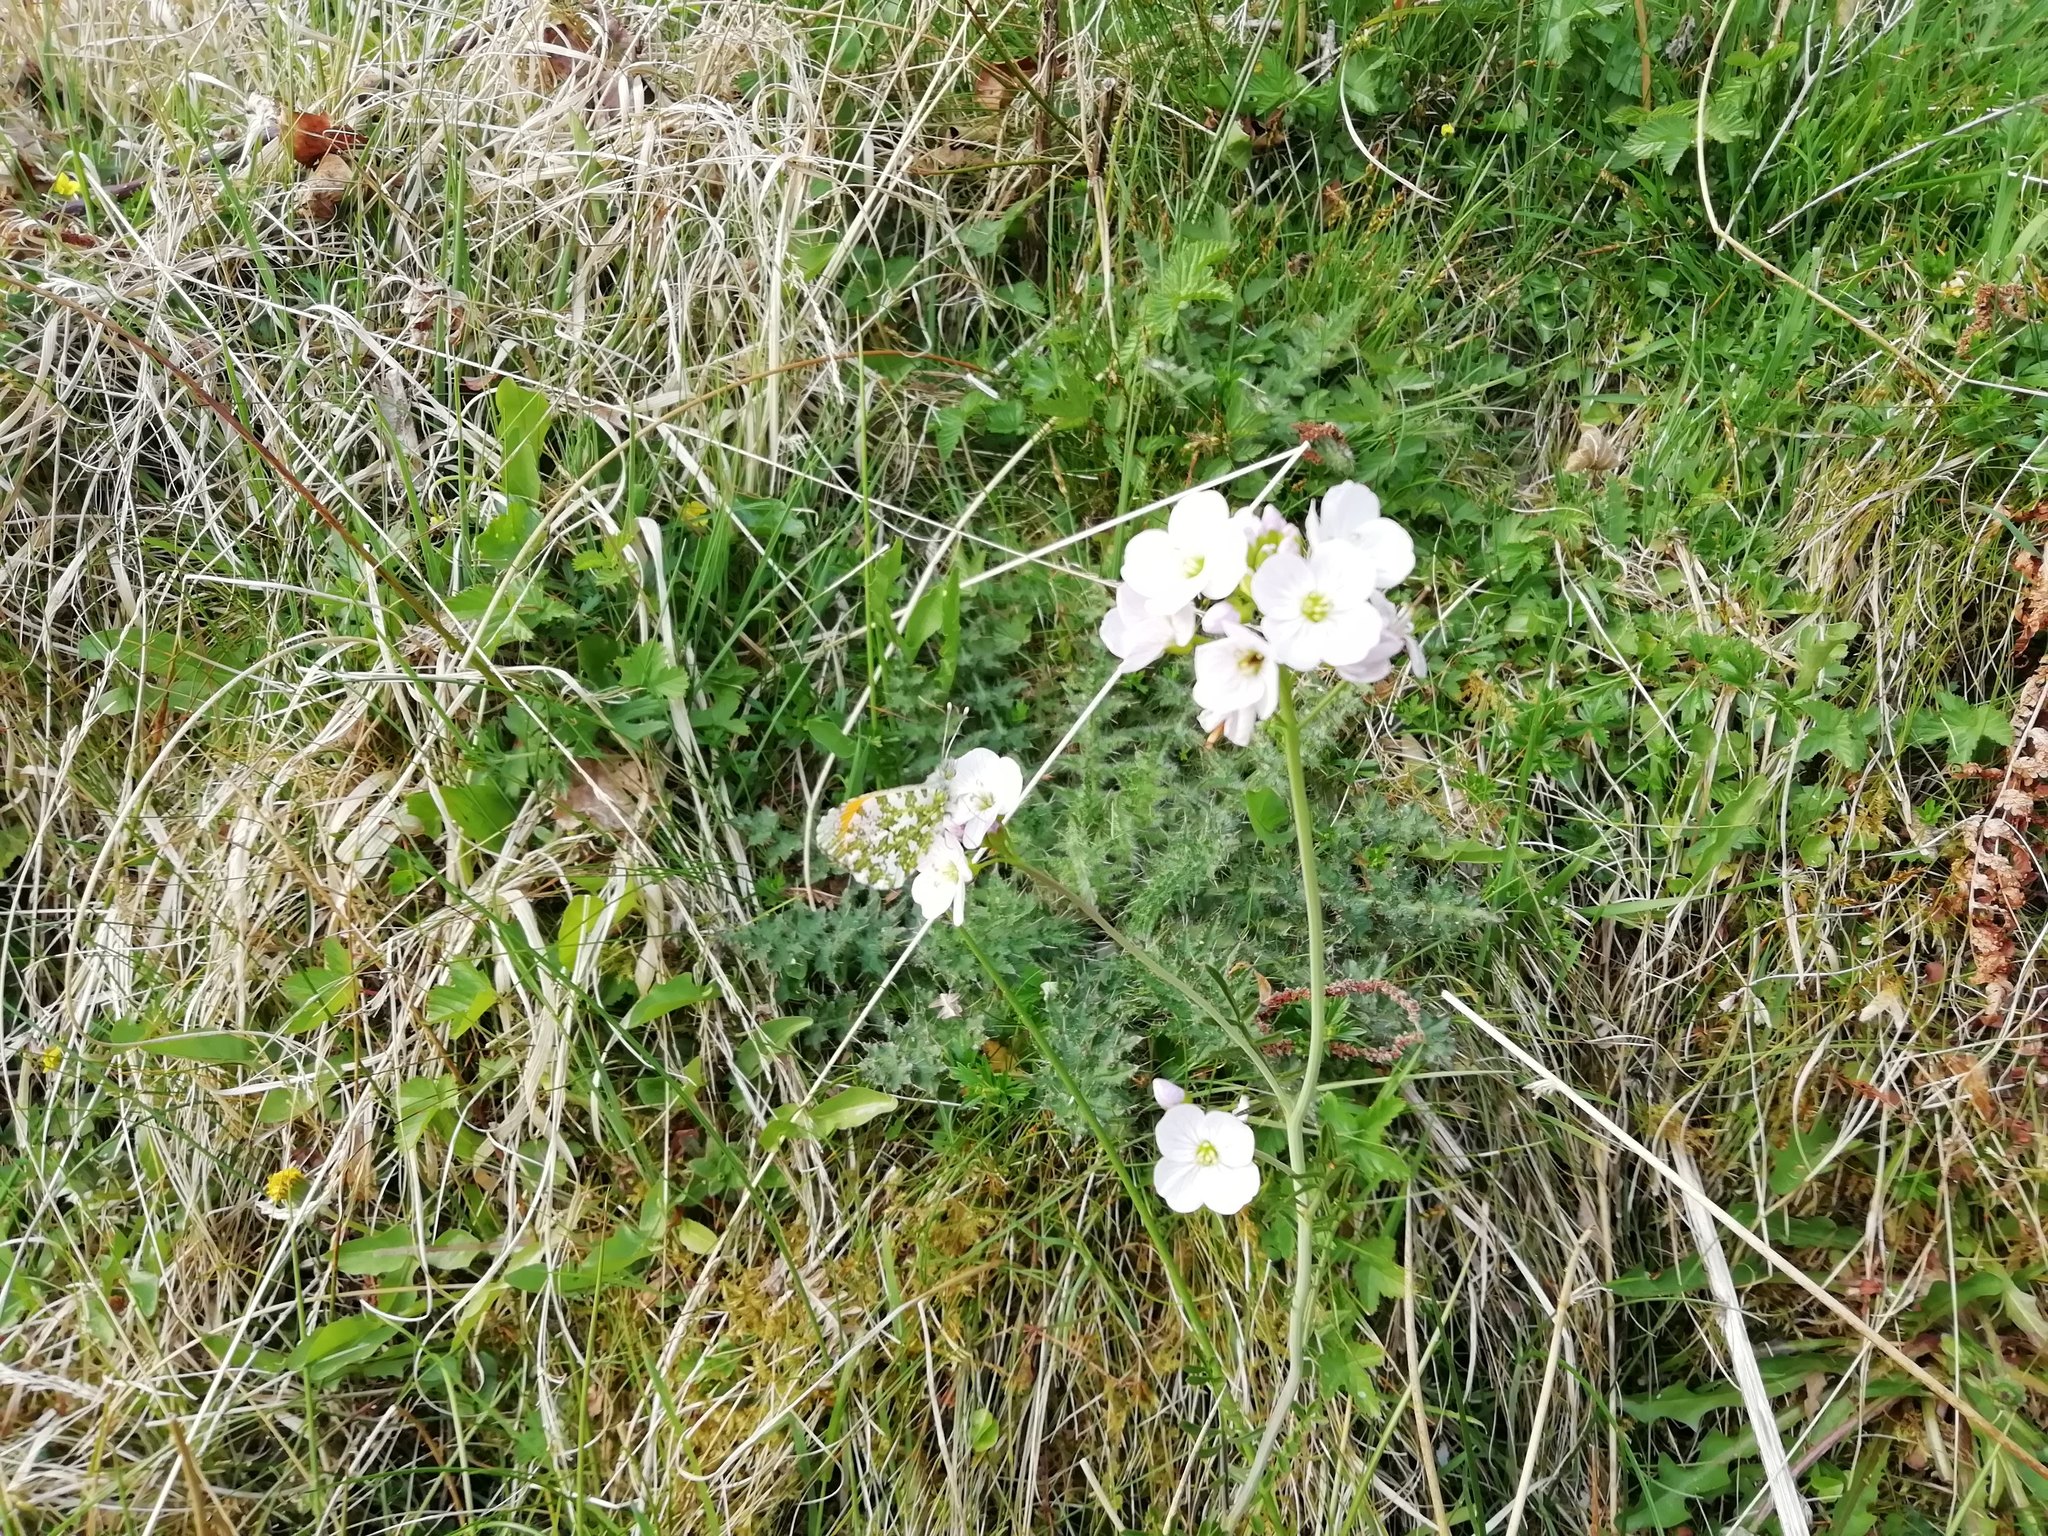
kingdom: Animalia
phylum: Arthropoda
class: Insecta
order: Lepidoptera
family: Pieridae
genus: Anthocharis
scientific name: Anthocharis cardamines
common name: Orange-tip
